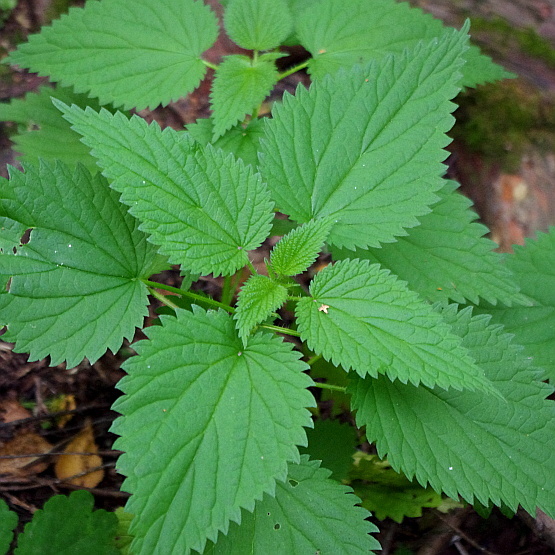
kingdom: Plantae
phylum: Tracheophyta
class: Magnoliopsida
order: Rosales
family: Urticaceae
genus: Urtica
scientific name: Urtica dioica
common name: Common nettle
